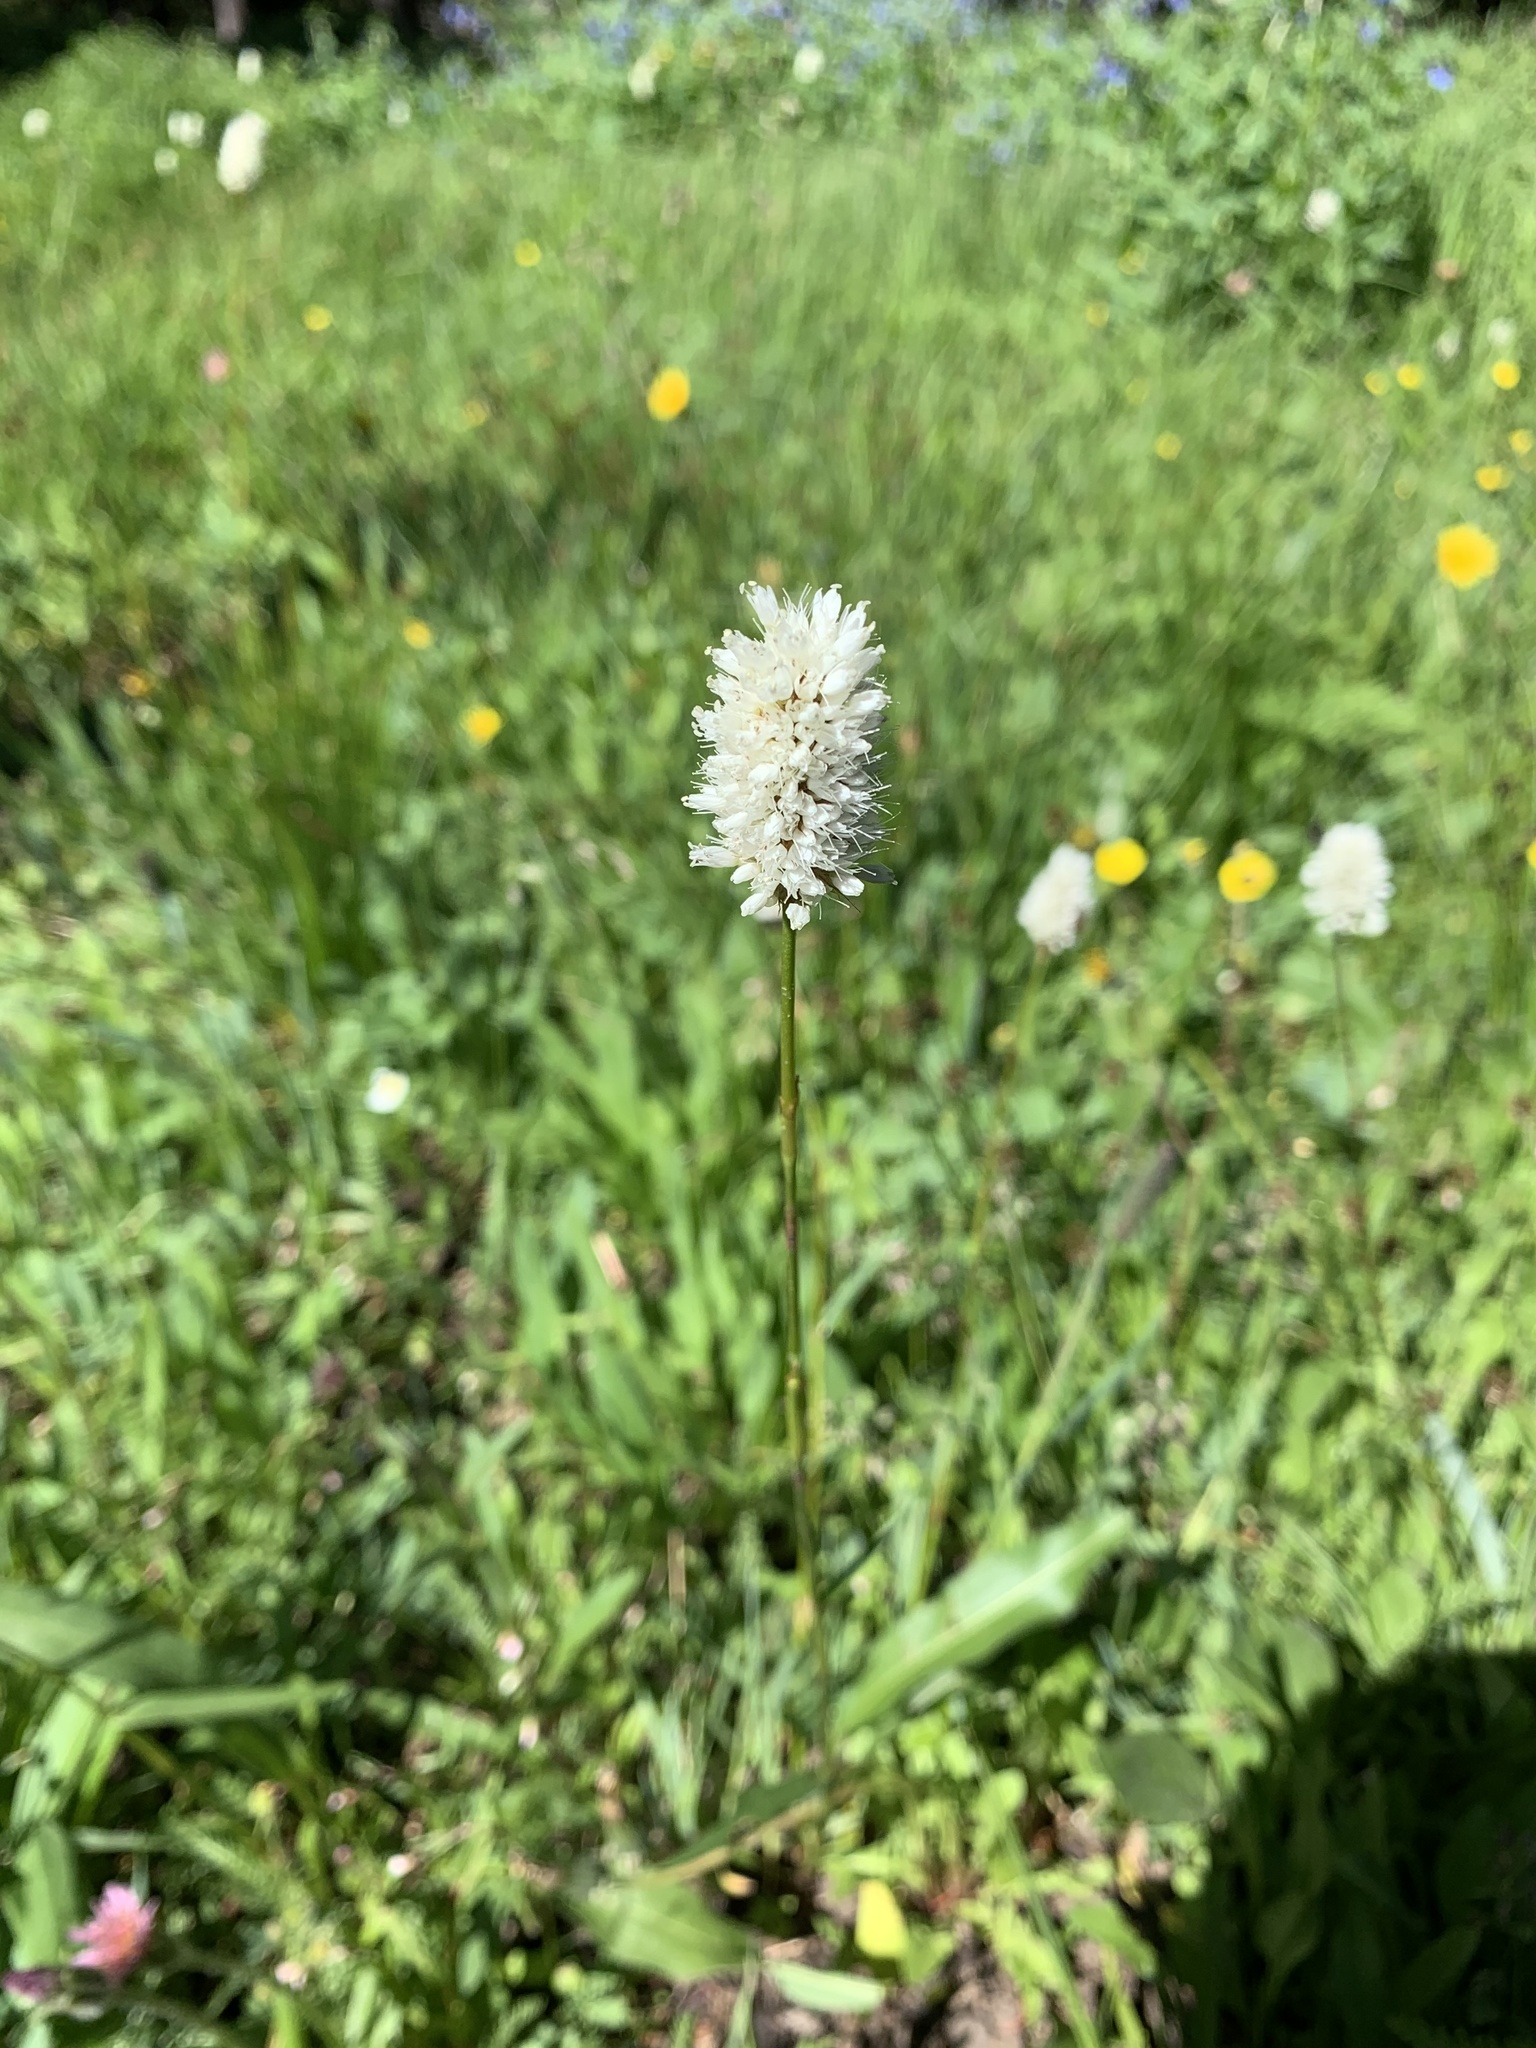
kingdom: Plantae
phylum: Tracheophyta
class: Magnoliopsida
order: Caryophyllales
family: Polygonaceae
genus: Bistorta
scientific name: Bistorta bistortoides
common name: American bistort
